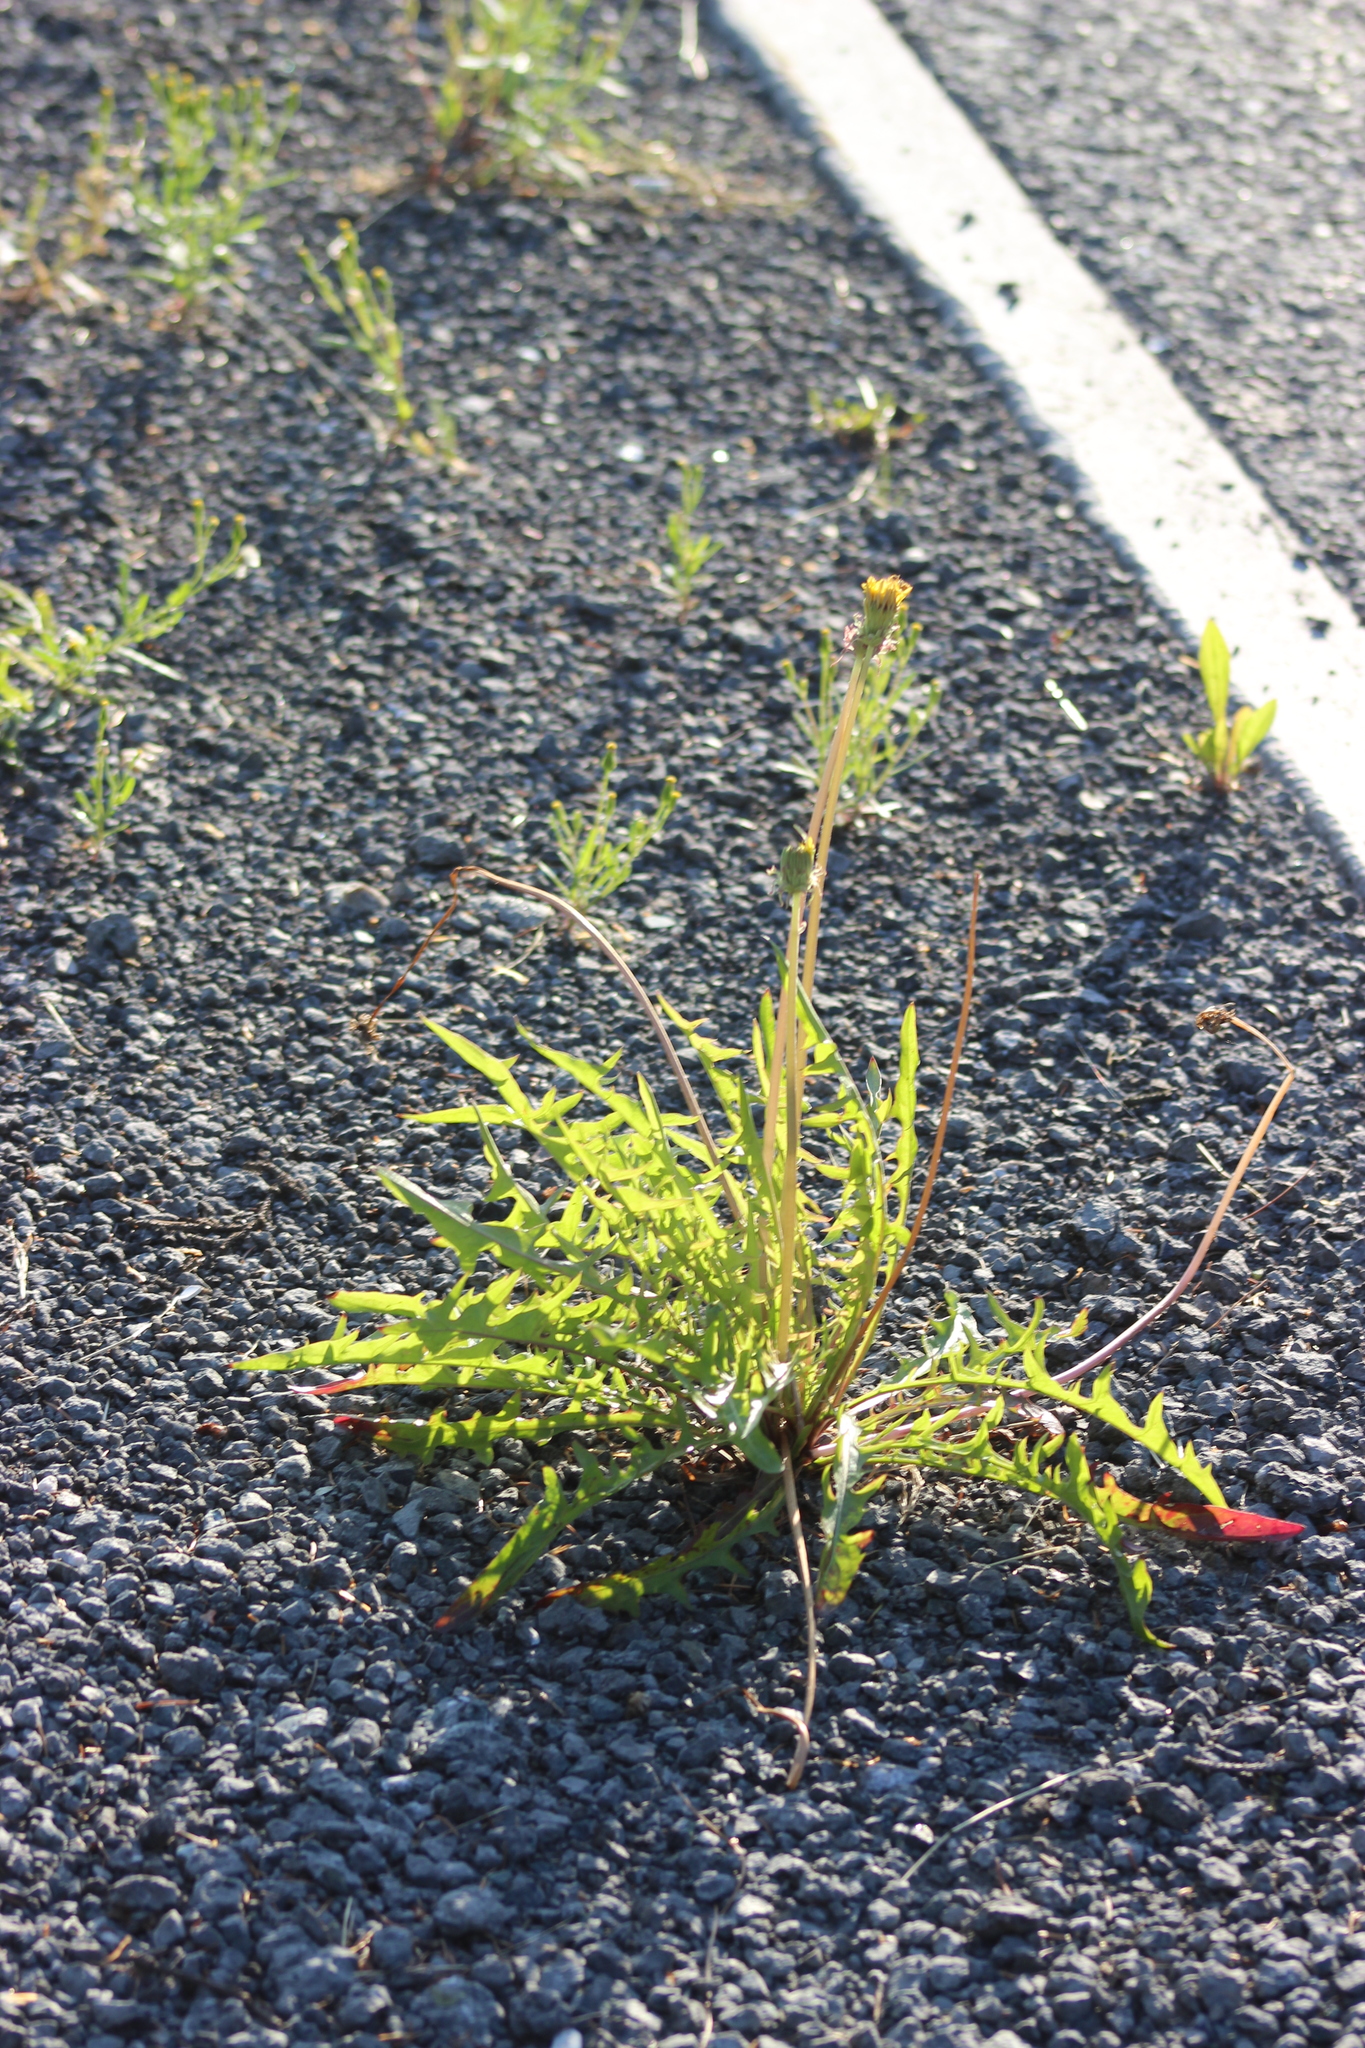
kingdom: Plantae
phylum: Tracheophyta
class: Magnoliopsida
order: Asterales
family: Asteraceae
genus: Taraxacum
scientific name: Taraxacum scariosum
